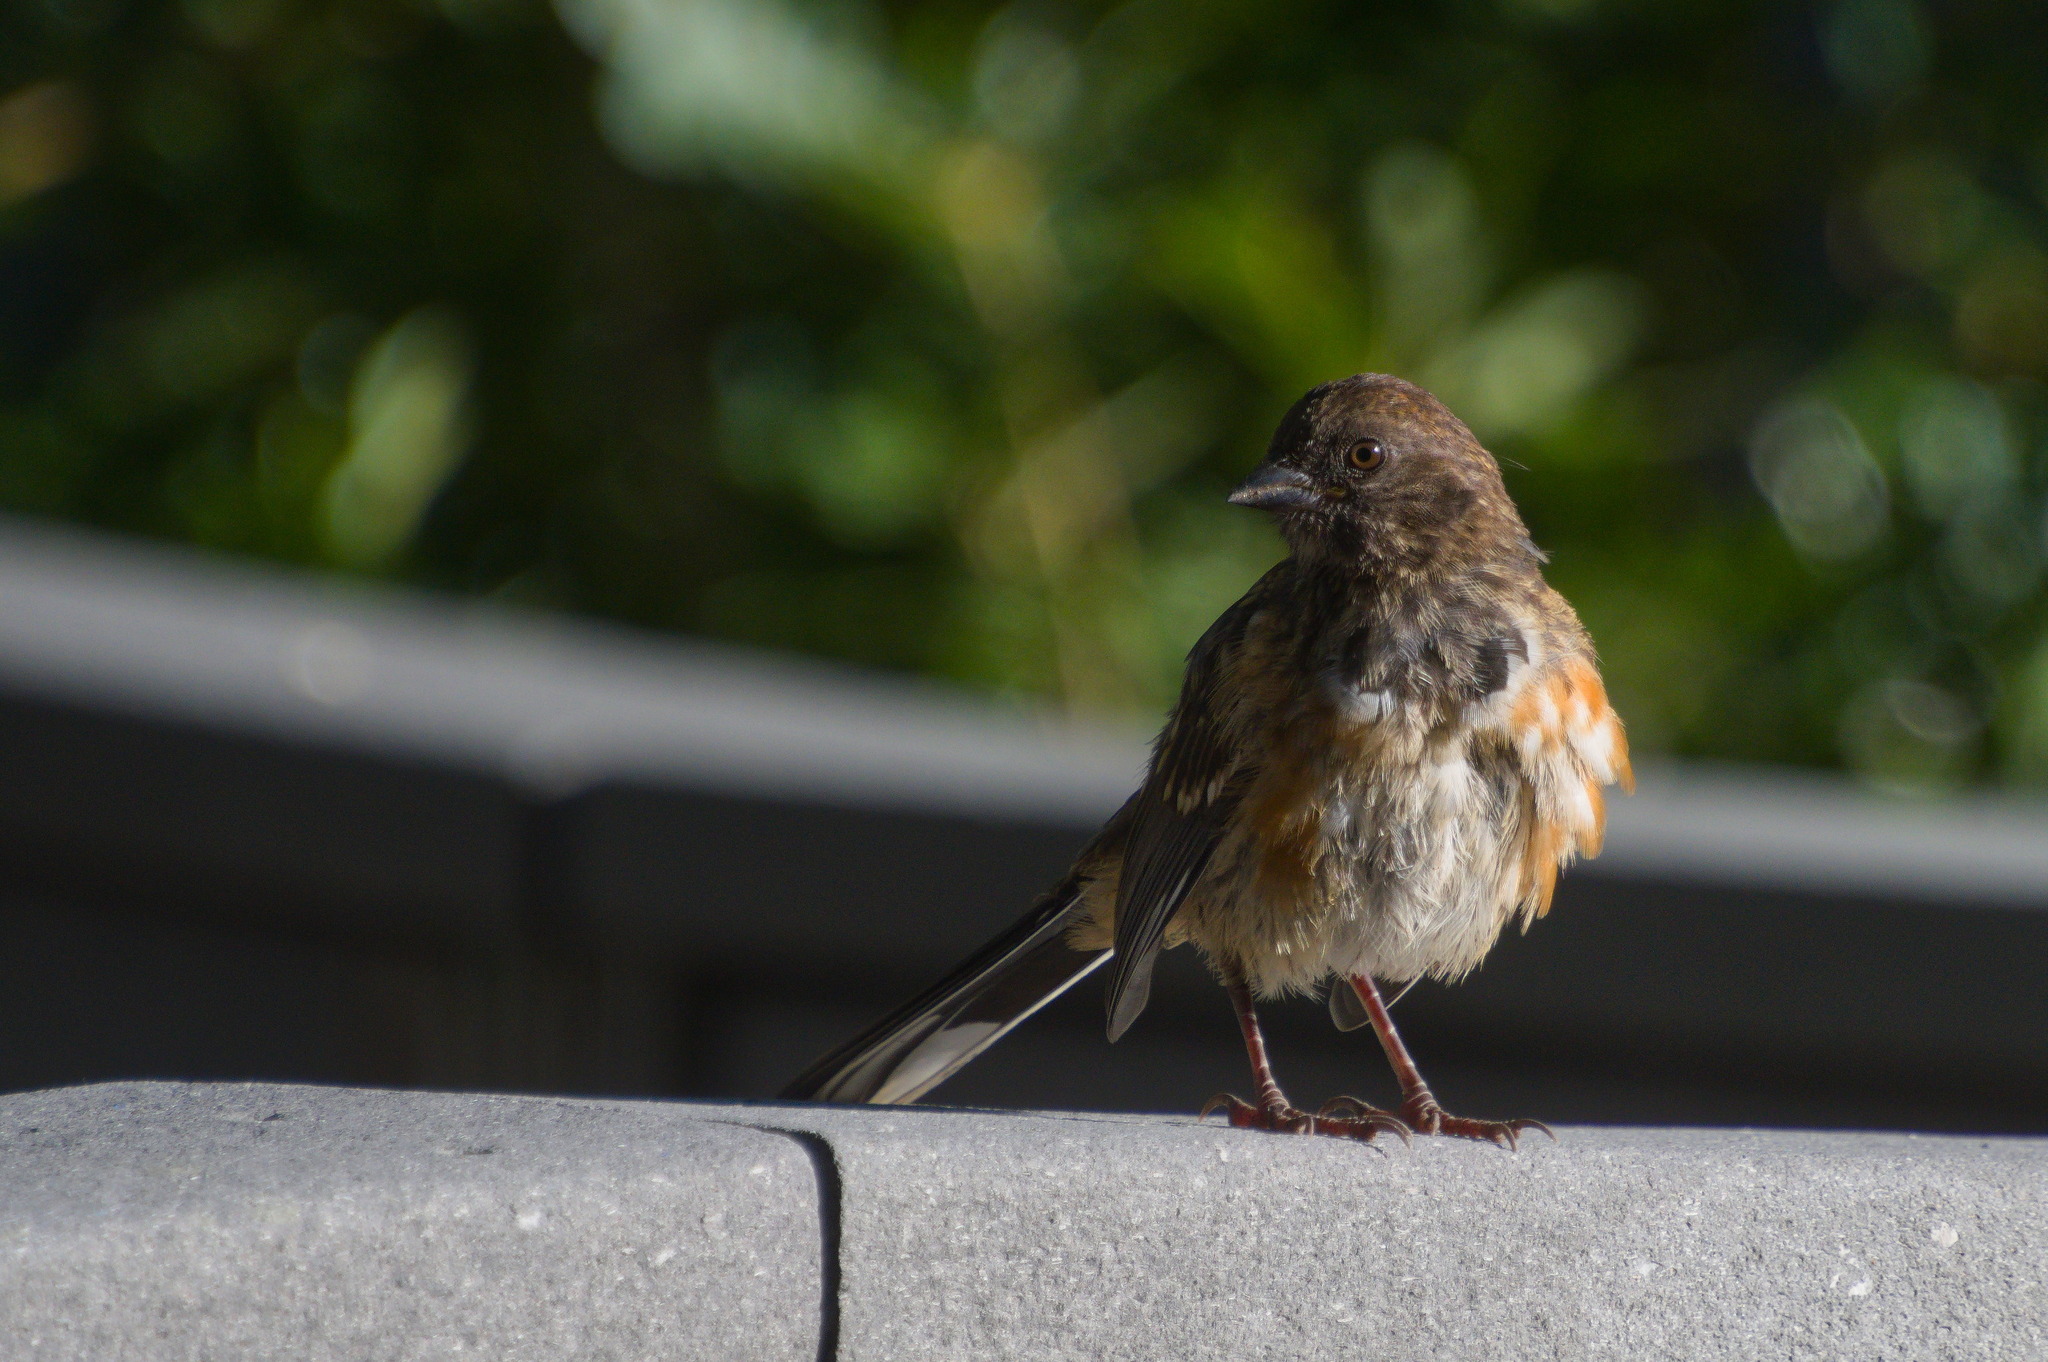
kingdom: Animalia
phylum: Chordata
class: Aves
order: Passeriformes
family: Passerellidae
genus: Pipilo
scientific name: Pipilo maculatus
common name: Spotted towhee
